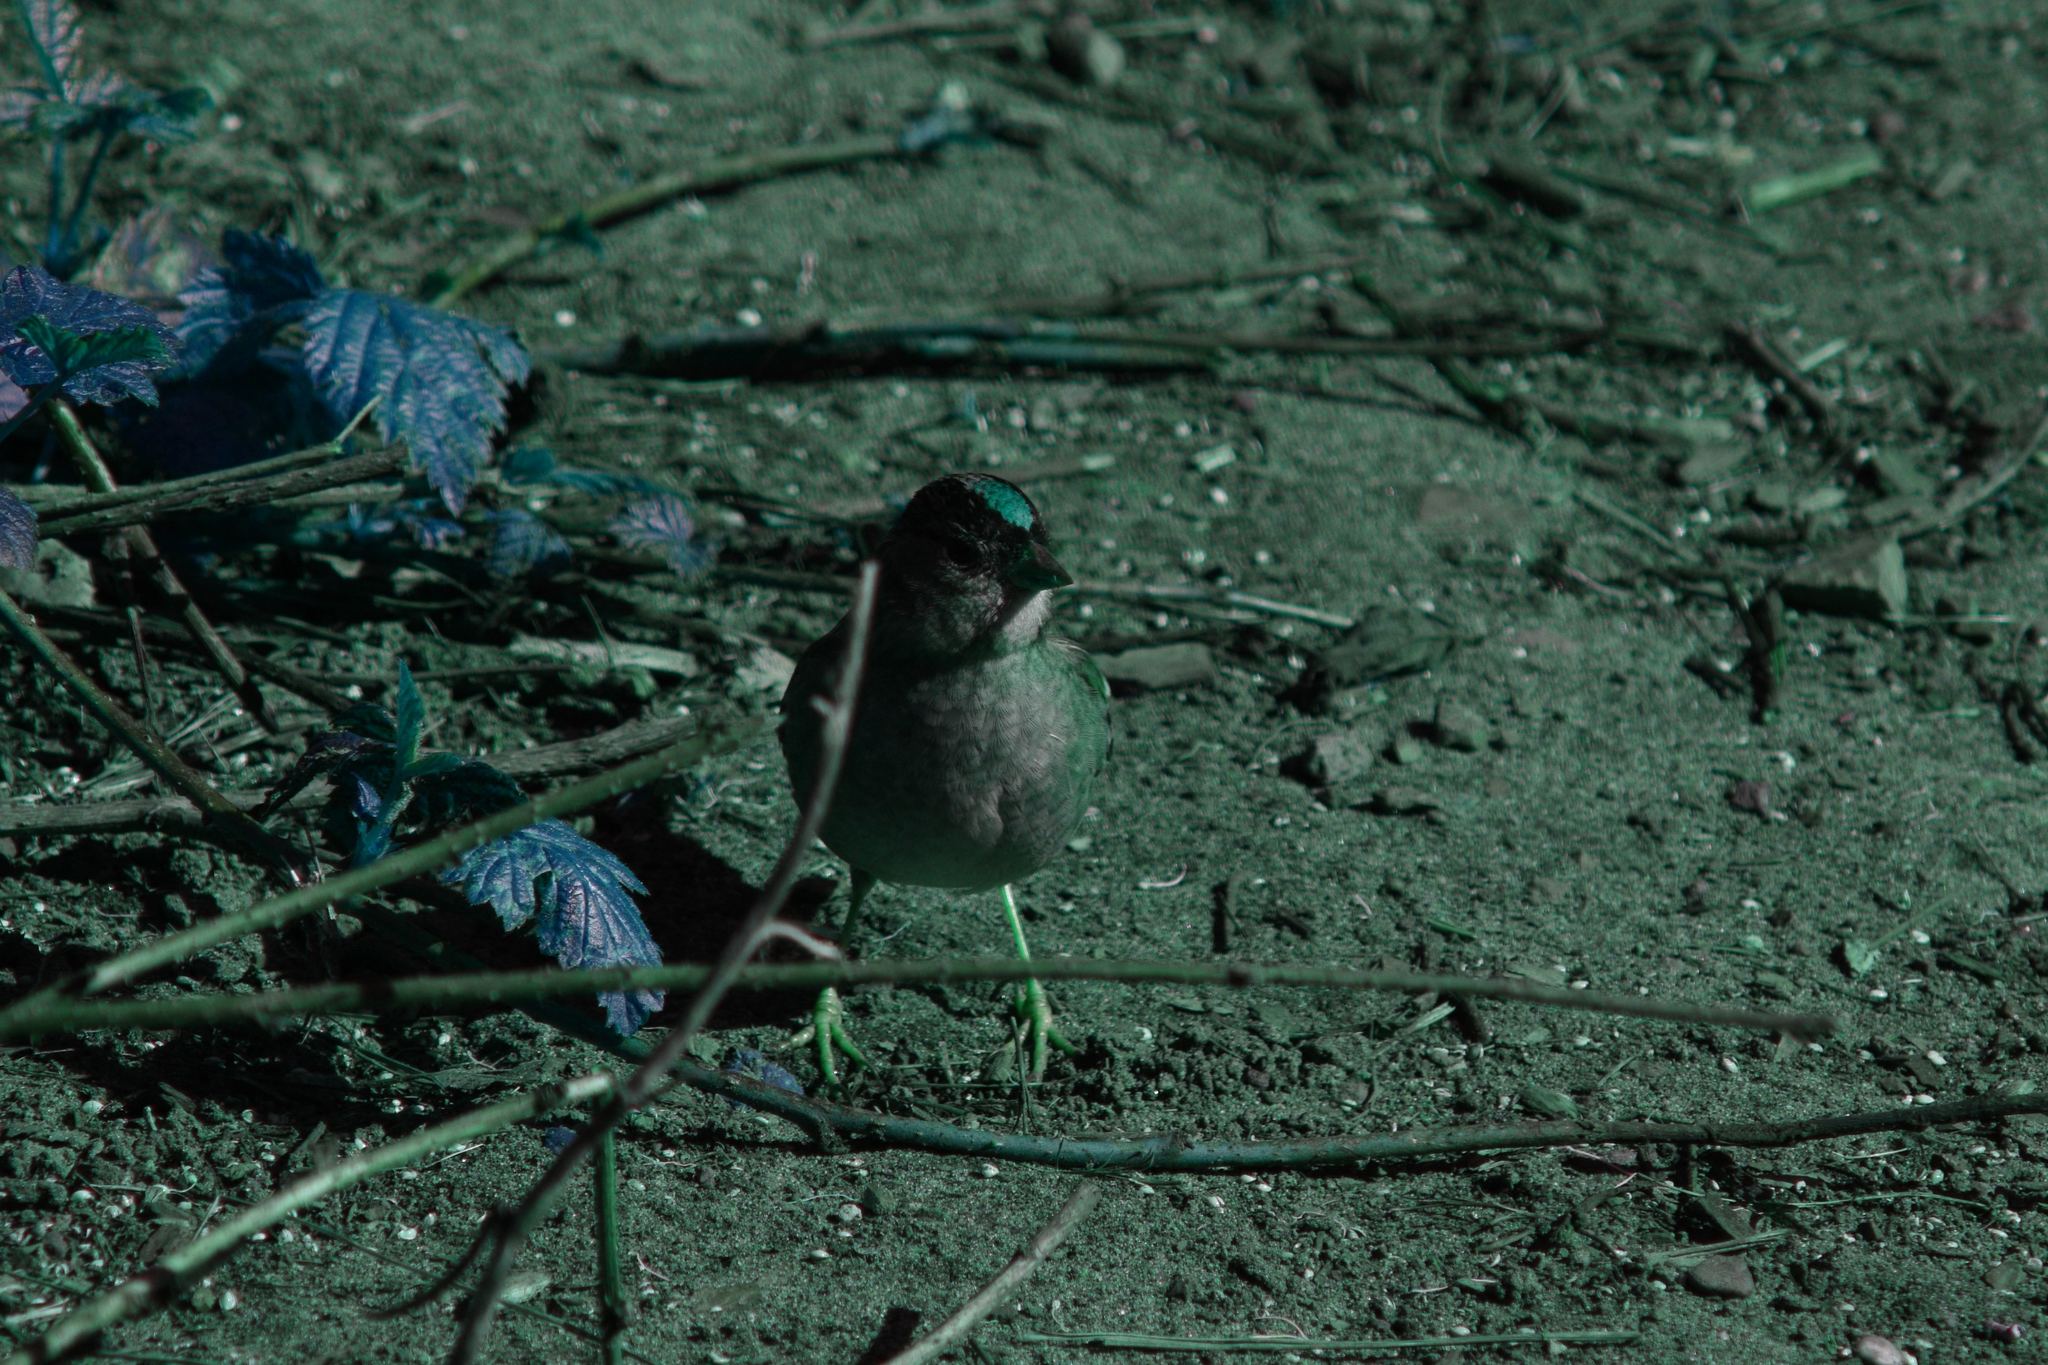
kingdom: Animalia
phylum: Chordata
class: Aves
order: Passeriformes
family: Passerellidae
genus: Zonotrichia
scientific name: Zonotrichia atricapilla
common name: Golden-crowned sparrow
